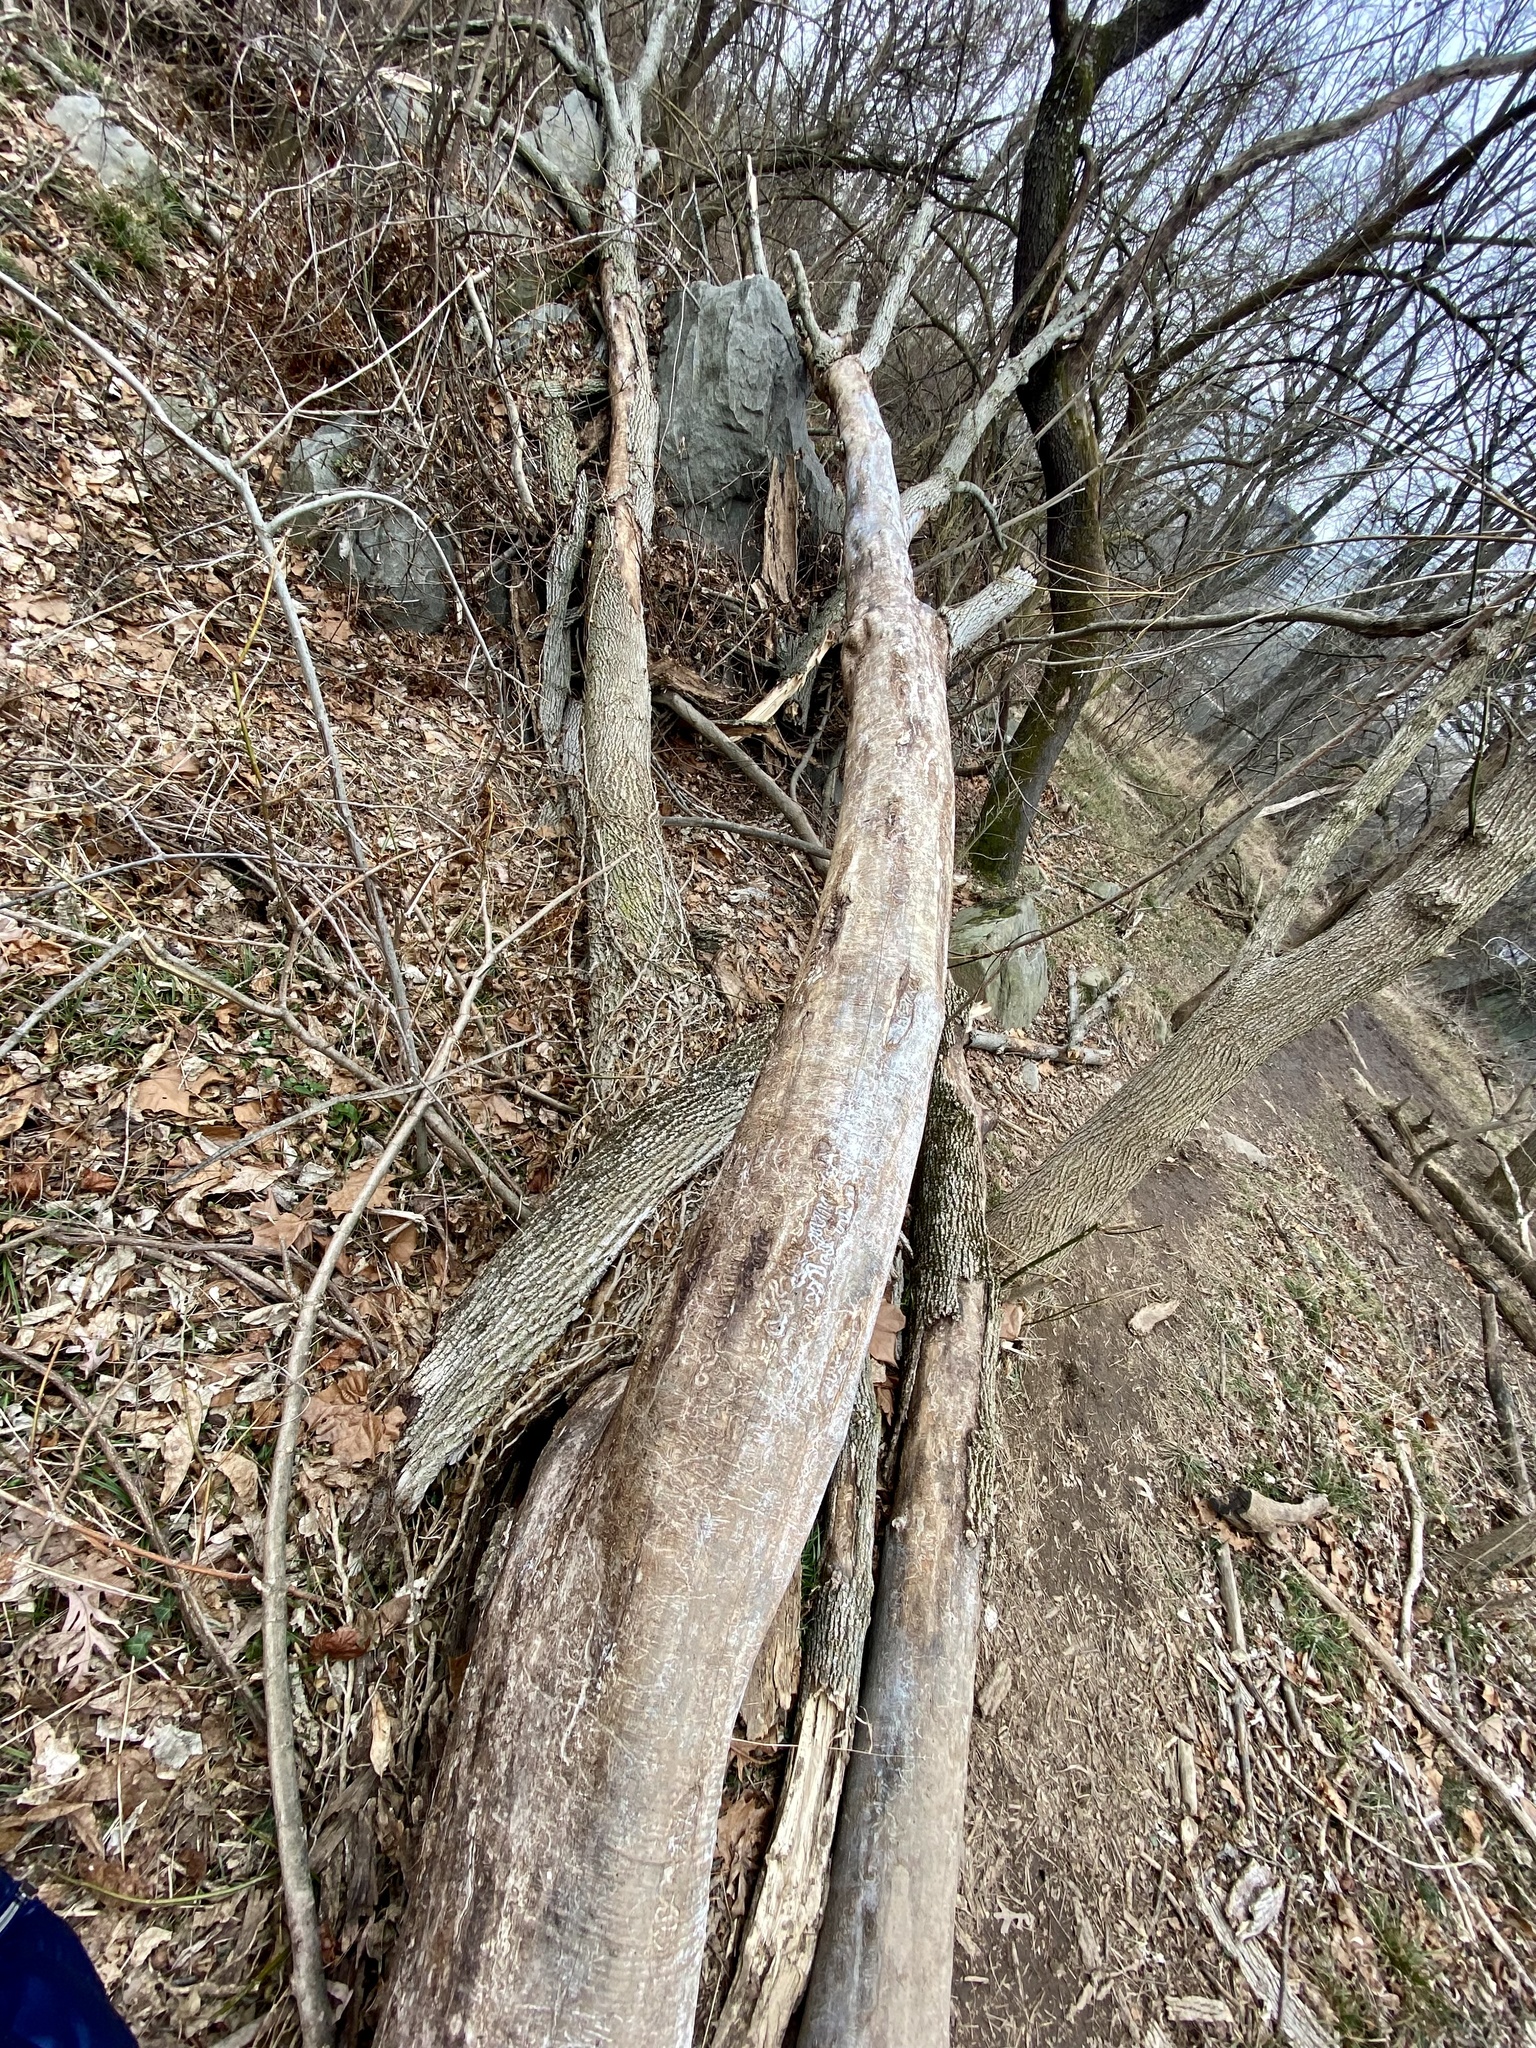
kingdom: Animalia
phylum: Arthropoda
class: Insecta
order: Coleoptera
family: Buprestidae
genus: Agrilus
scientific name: Agrilus planipennis
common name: Emerald ash borer
